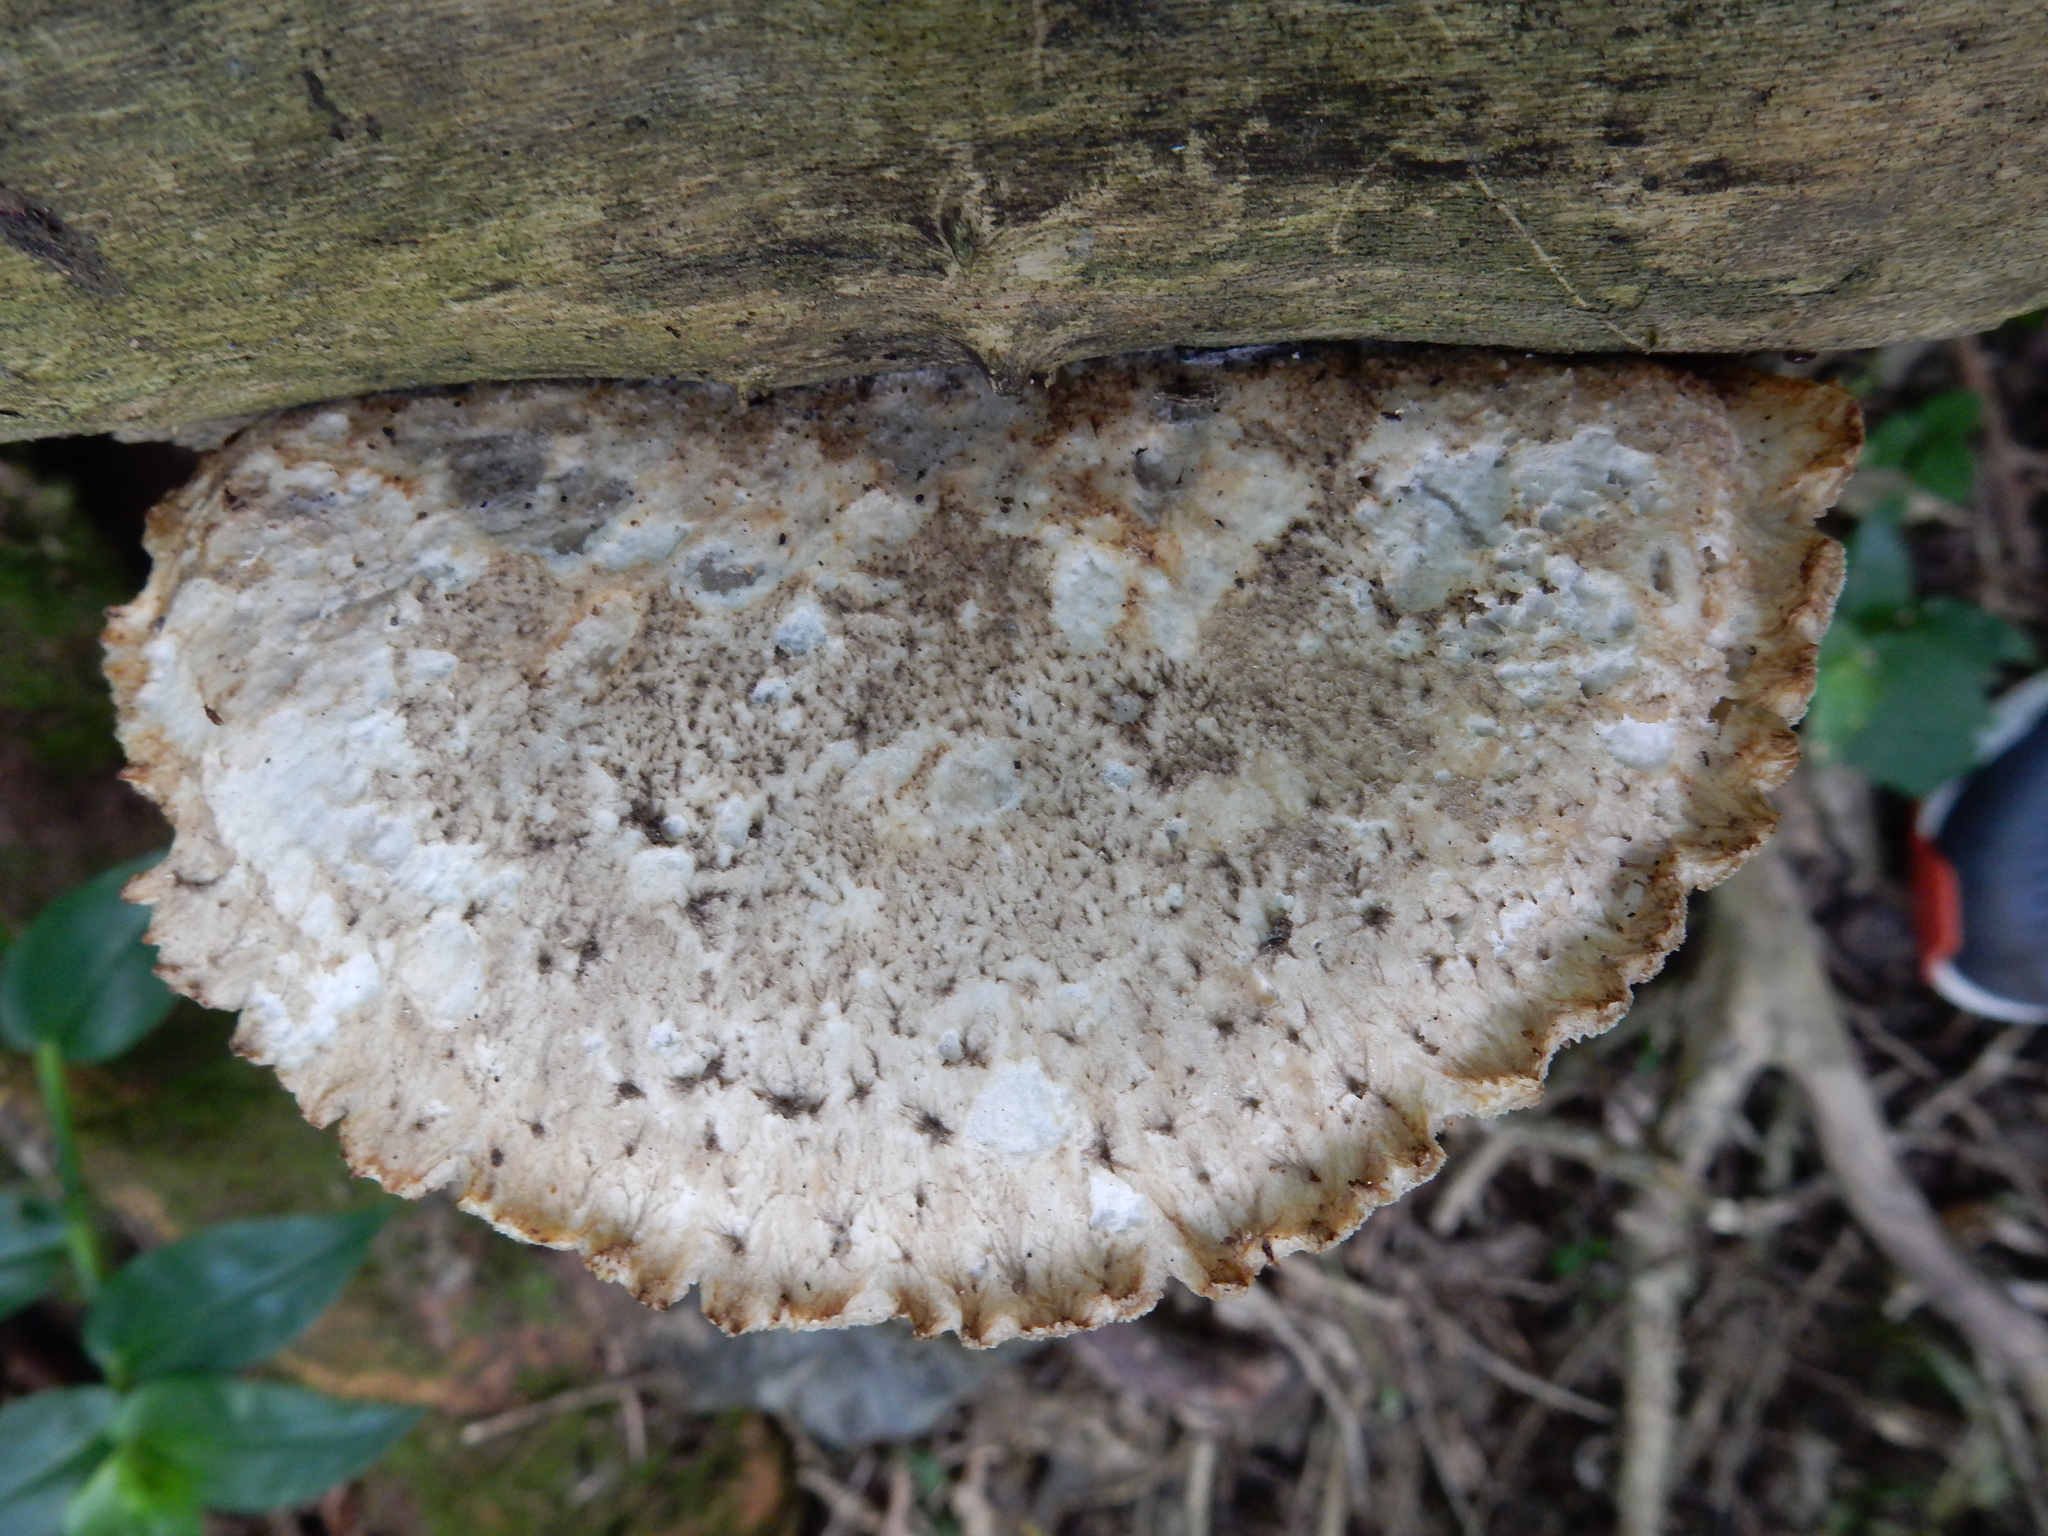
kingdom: Fungi
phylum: Basidiomycota
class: Agaricomycetes
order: Polyporales
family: Polyporaceae
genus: Bresadolia
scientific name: Bresadolia
